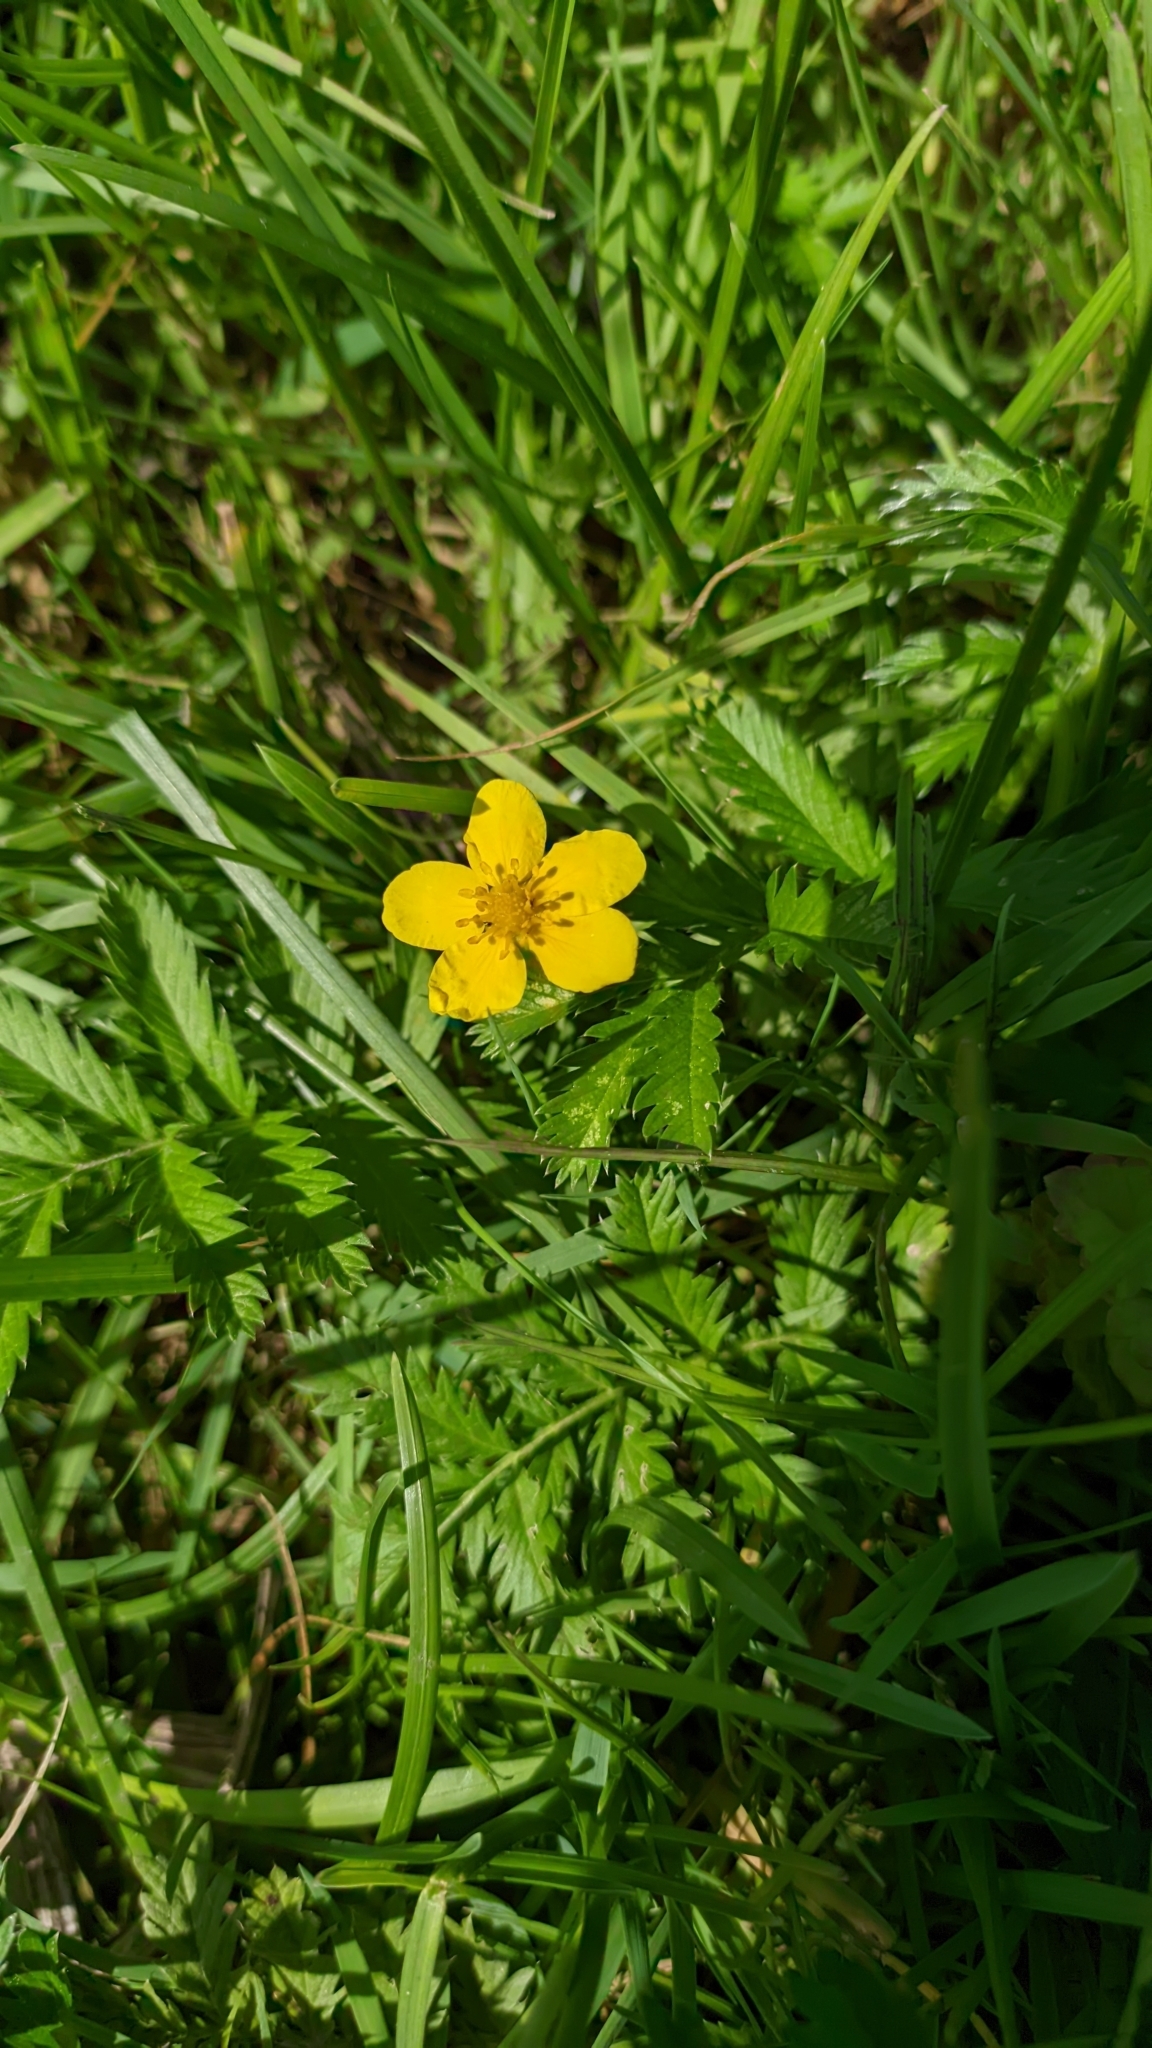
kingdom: Plantae
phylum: Tracheophyta
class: Magnoliopsida
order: Rosales
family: Rosaceae
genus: Argentina
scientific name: Argentina anserina
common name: Common silverweed
